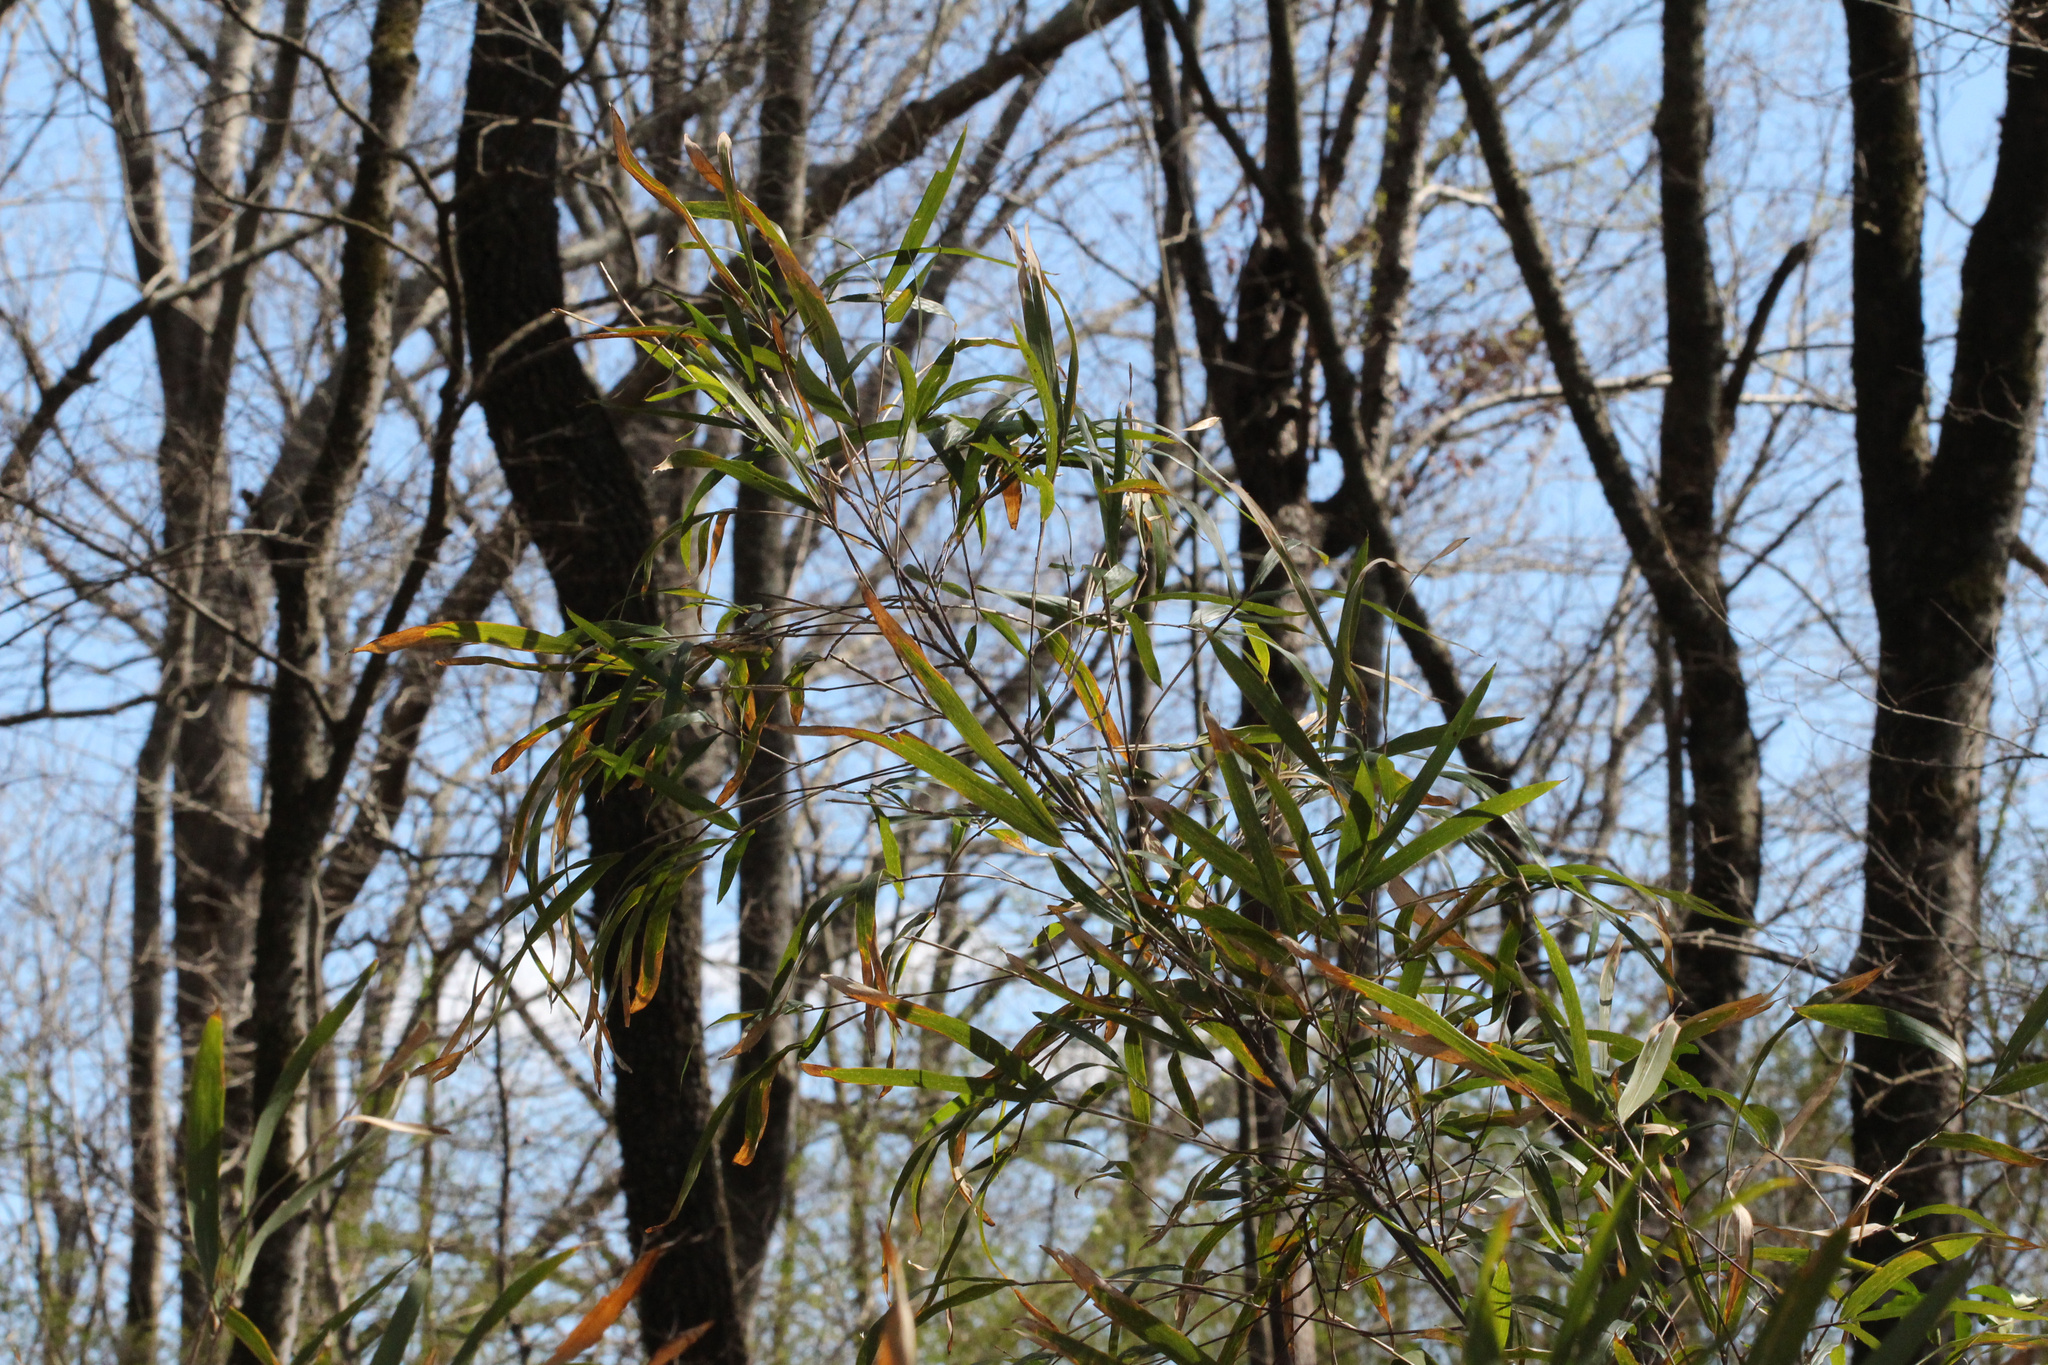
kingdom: Plantae
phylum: Tracheophyta
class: Liliopsida
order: Poales
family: Poaceae
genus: Arundinaria
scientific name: Arundinaria gigantea
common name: Giant cane
